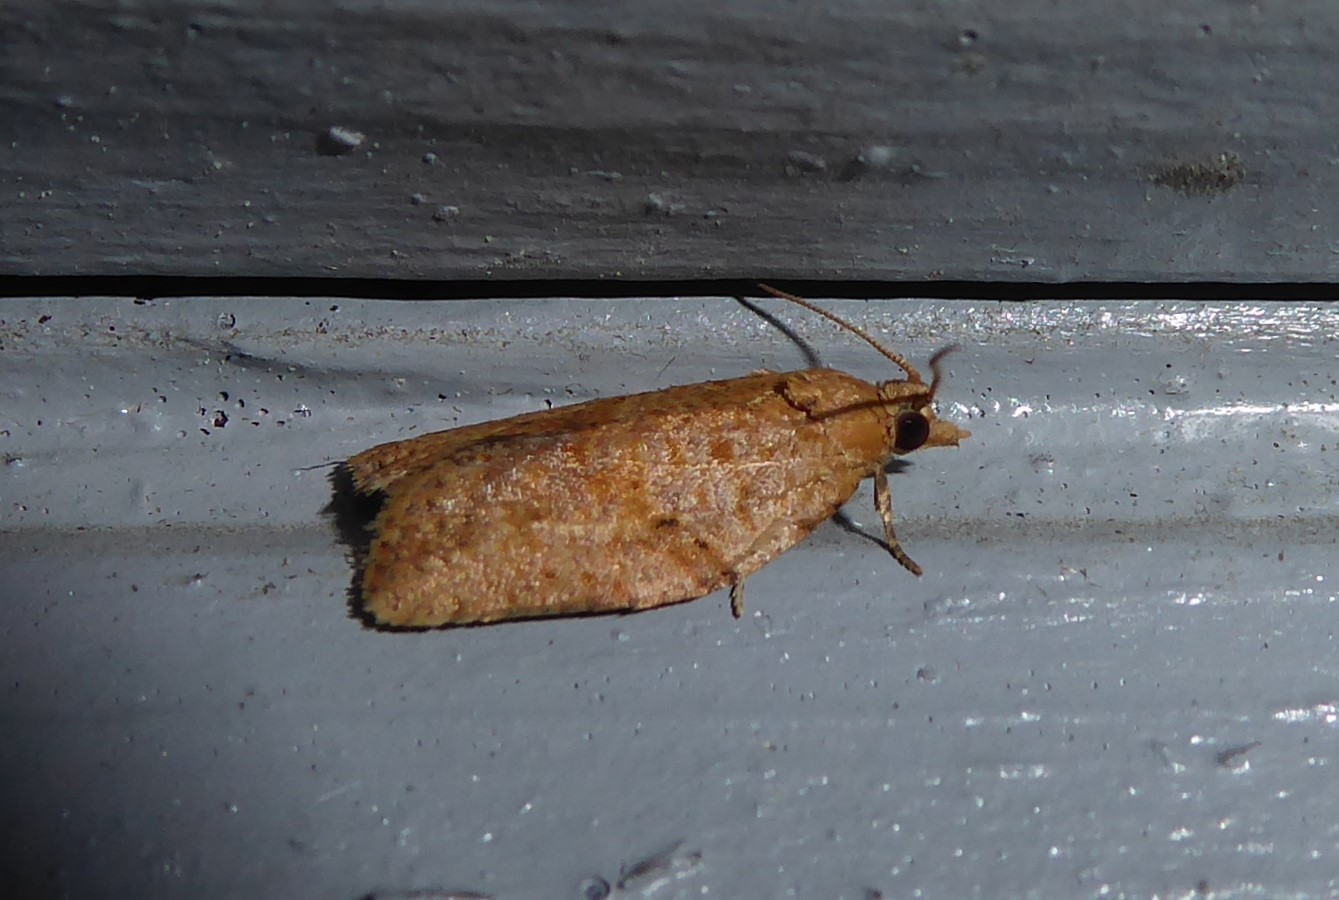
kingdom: Animalia
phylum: Arthropoda
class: Insecta
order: Lepidoptera
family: Tortricidae
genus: Epiphyas
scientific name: Epiphyas postvittana
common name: Light brown apple moth
